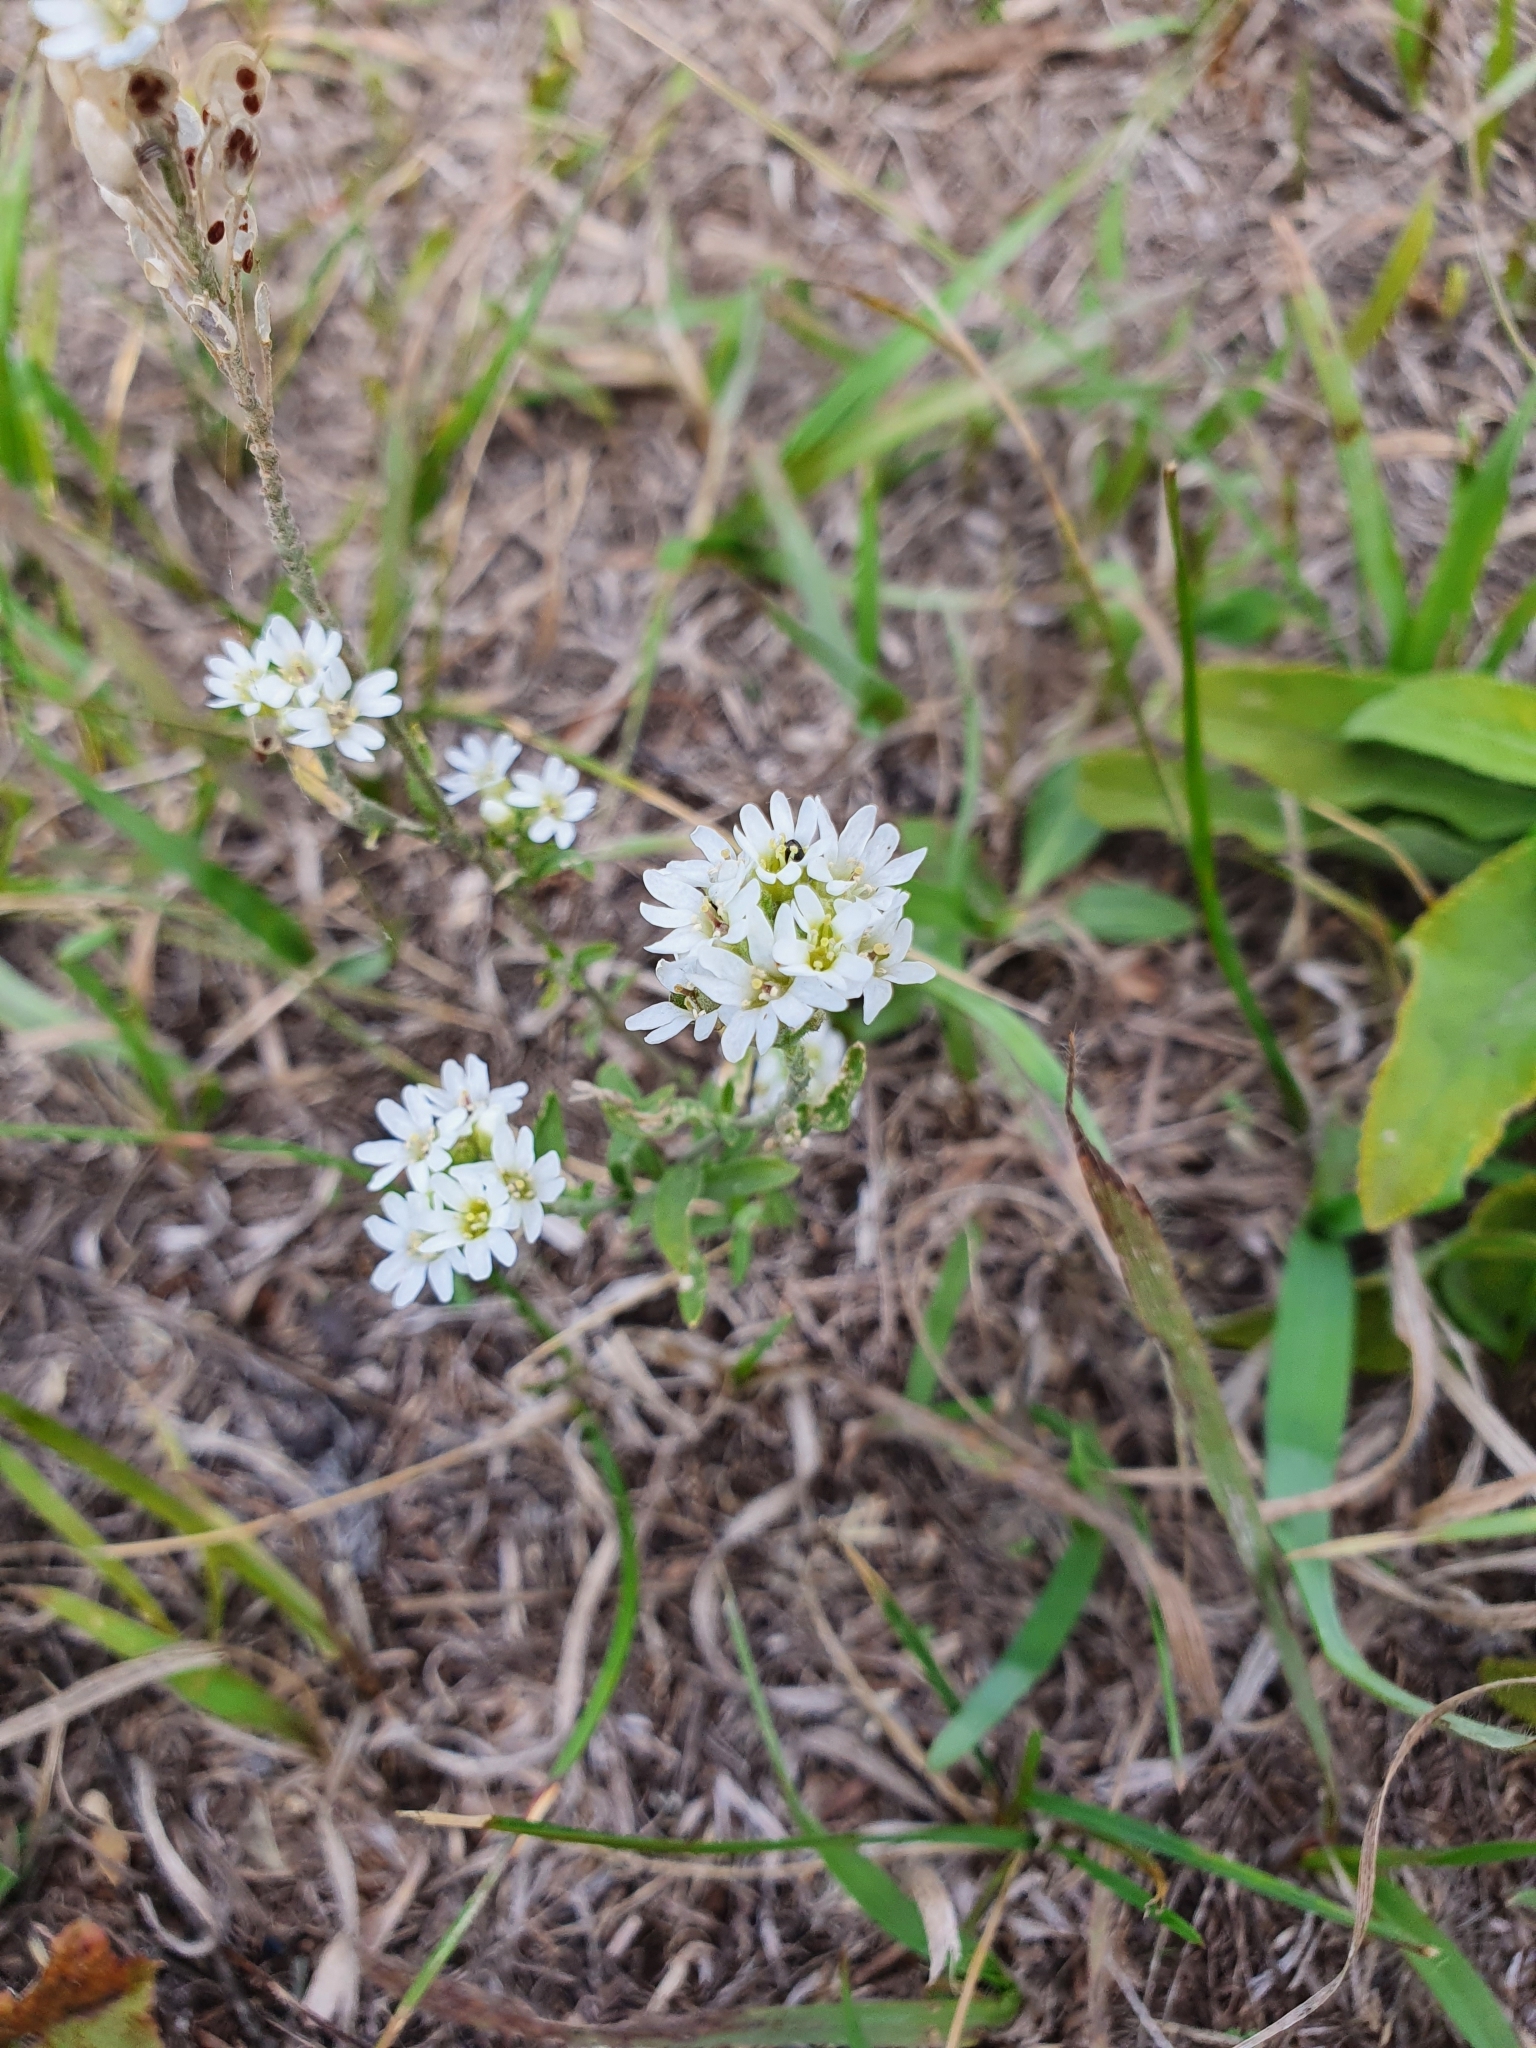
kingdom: Plantae
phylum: Tracheophyta
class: Magnoliopsida
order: Brassicales
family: Brassicaceae
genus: Berteroa
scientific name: Berteroa incana
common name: Hoary alison
